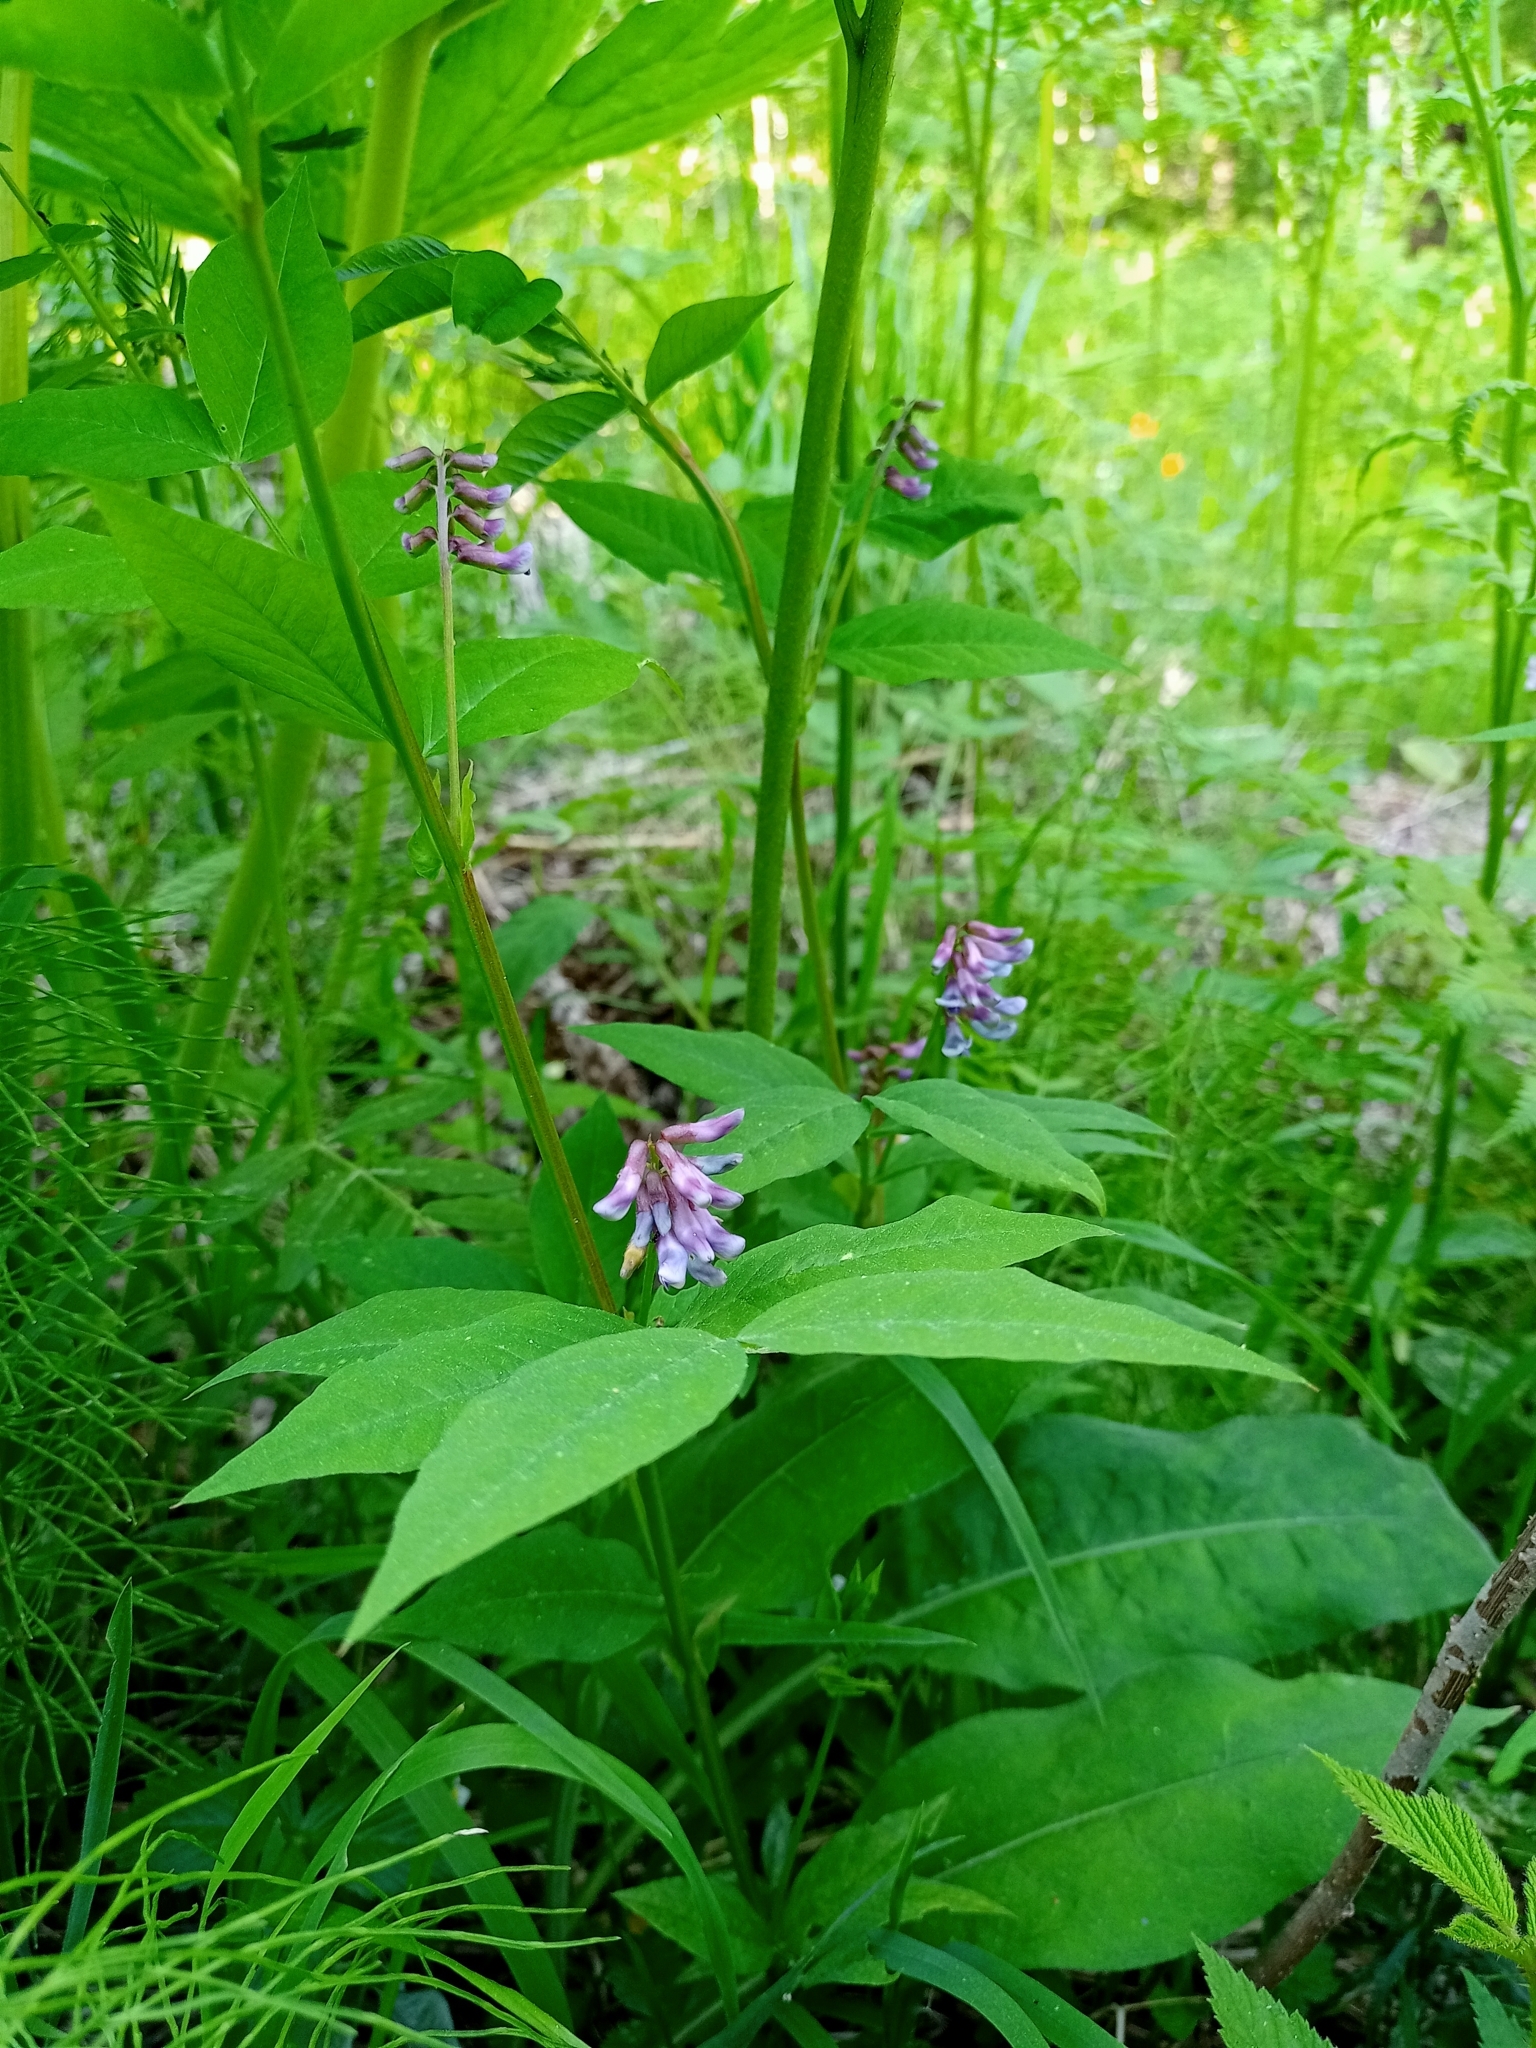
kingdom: Plantae
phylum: Tracheophyta
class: Magnoliopsida
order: Fabales
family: Fabaceae
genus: Vicia
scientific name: Vicia ramuliflora
